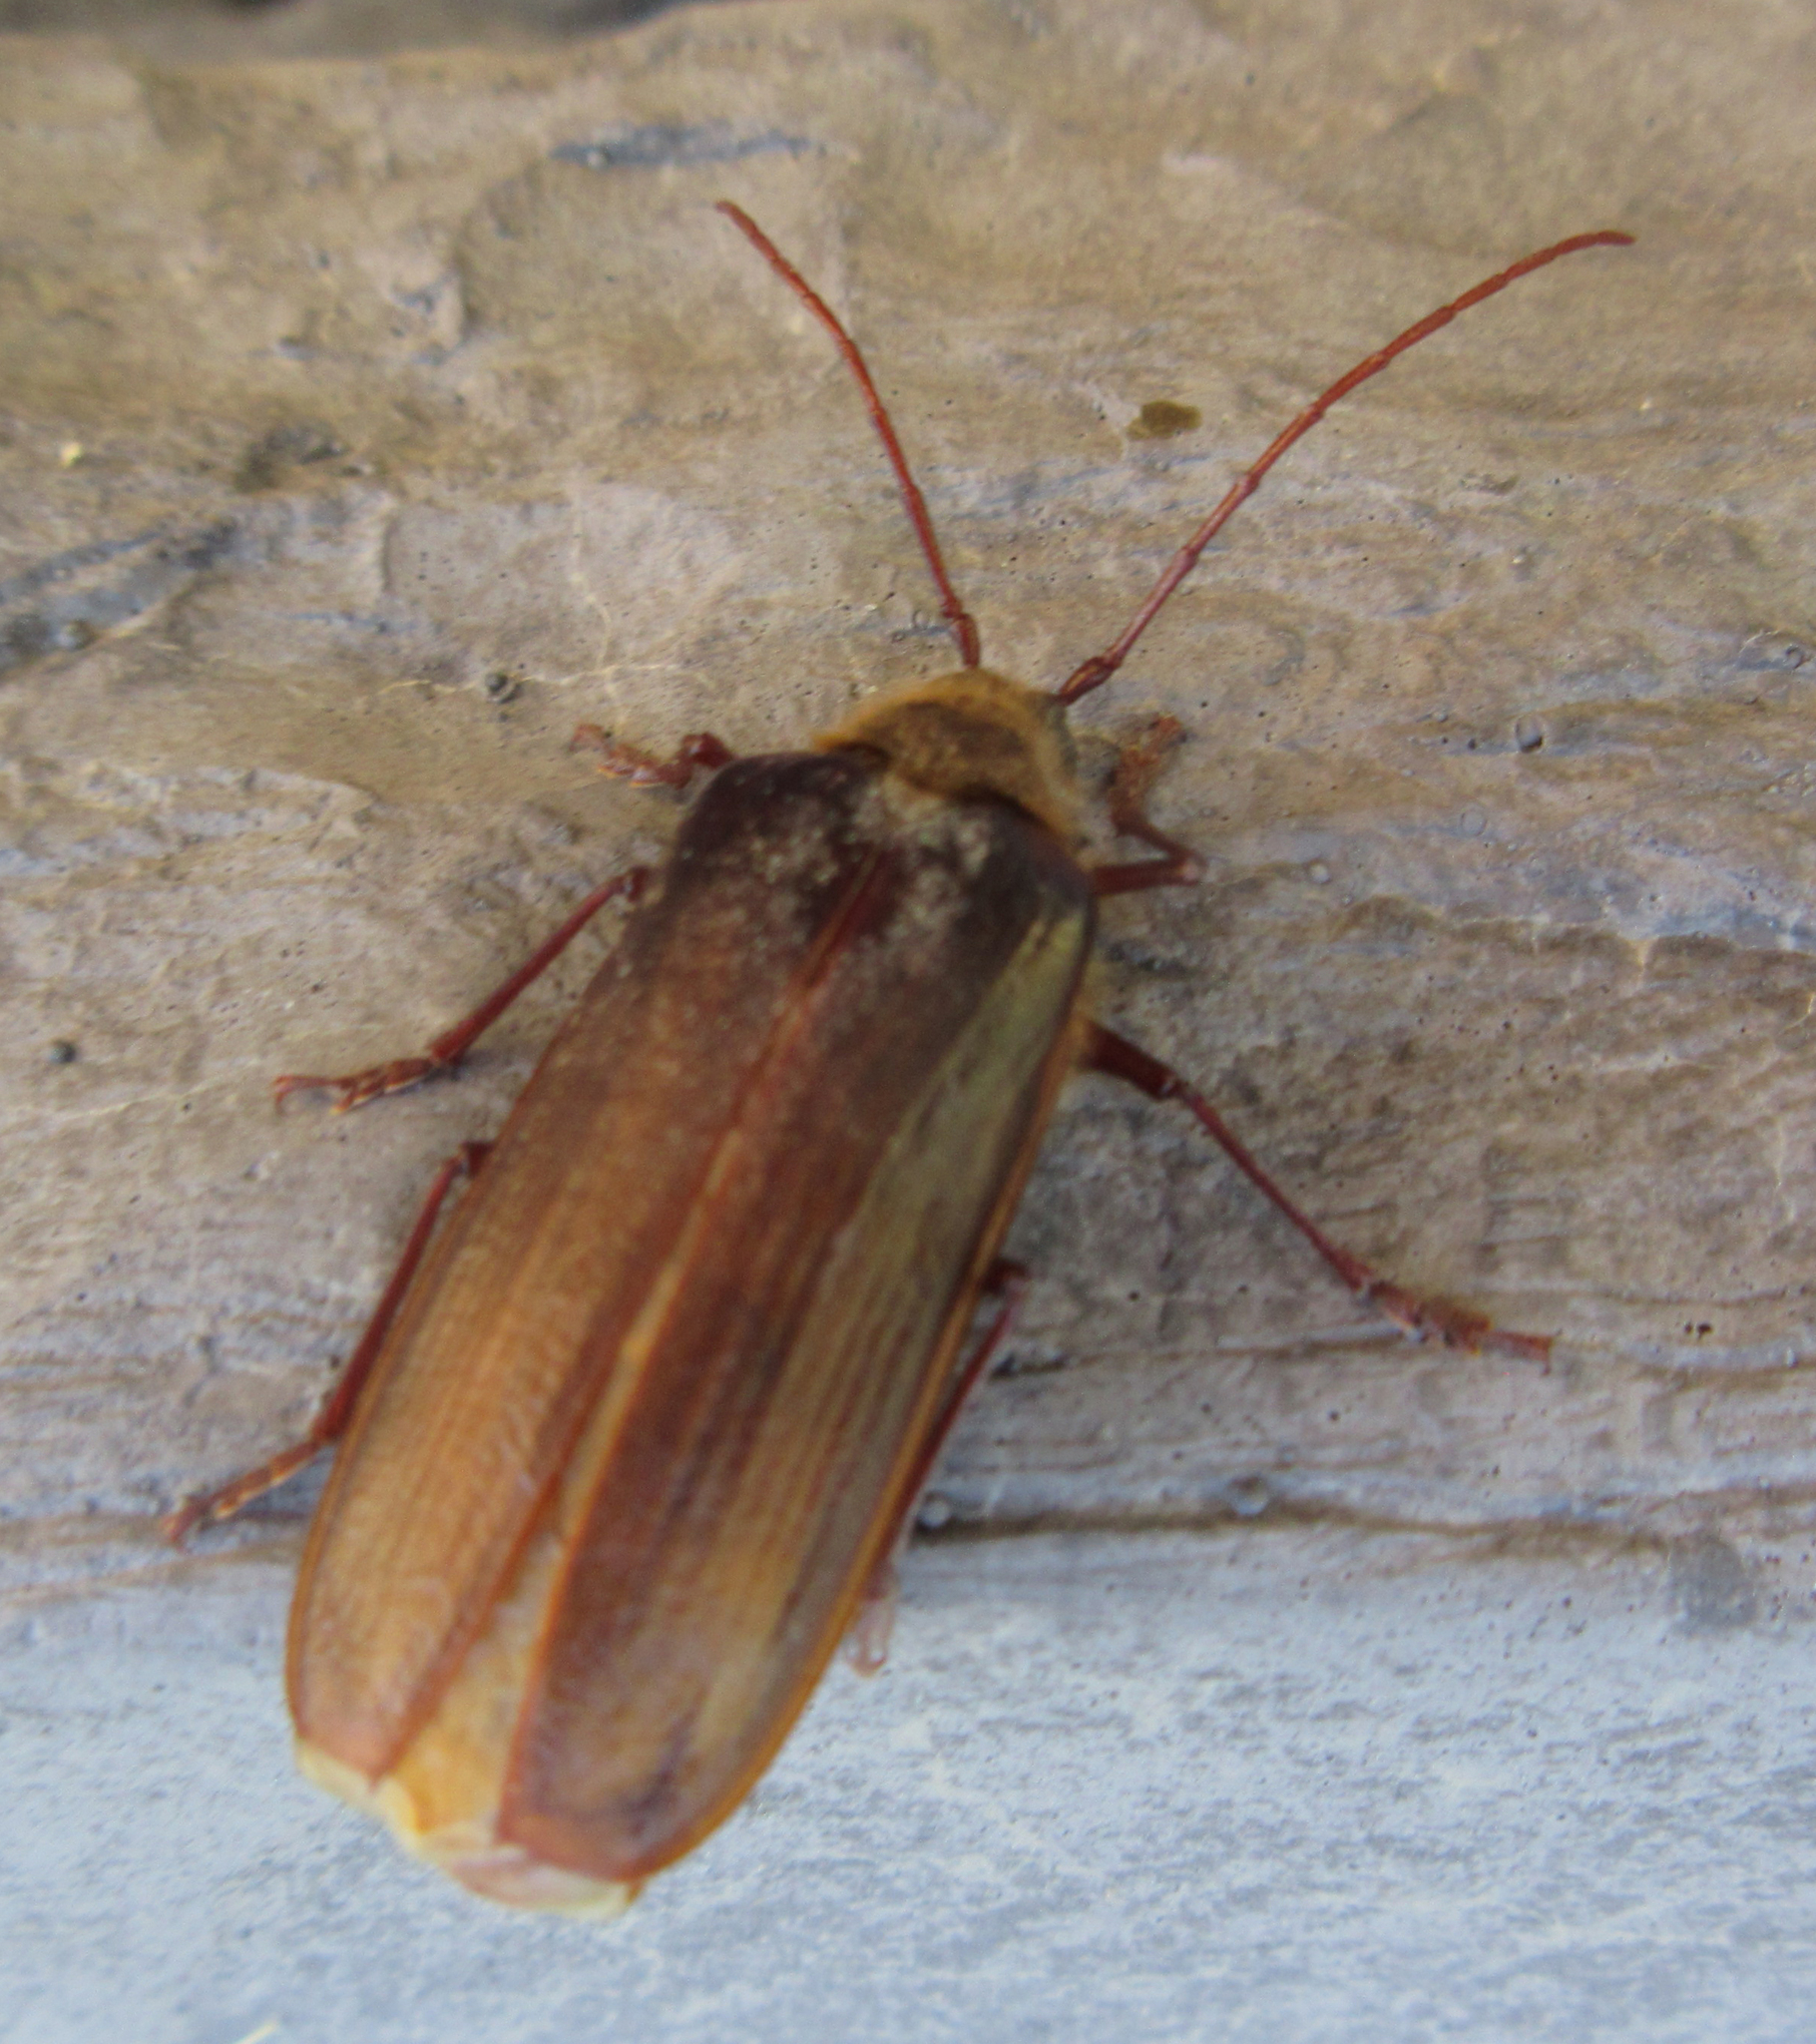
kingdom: Animalia
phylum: Arthropoda
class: Insecta
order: Coleoptera
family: Cerambycidae
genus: Tragosoma
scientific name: Tragosoma harrisii
